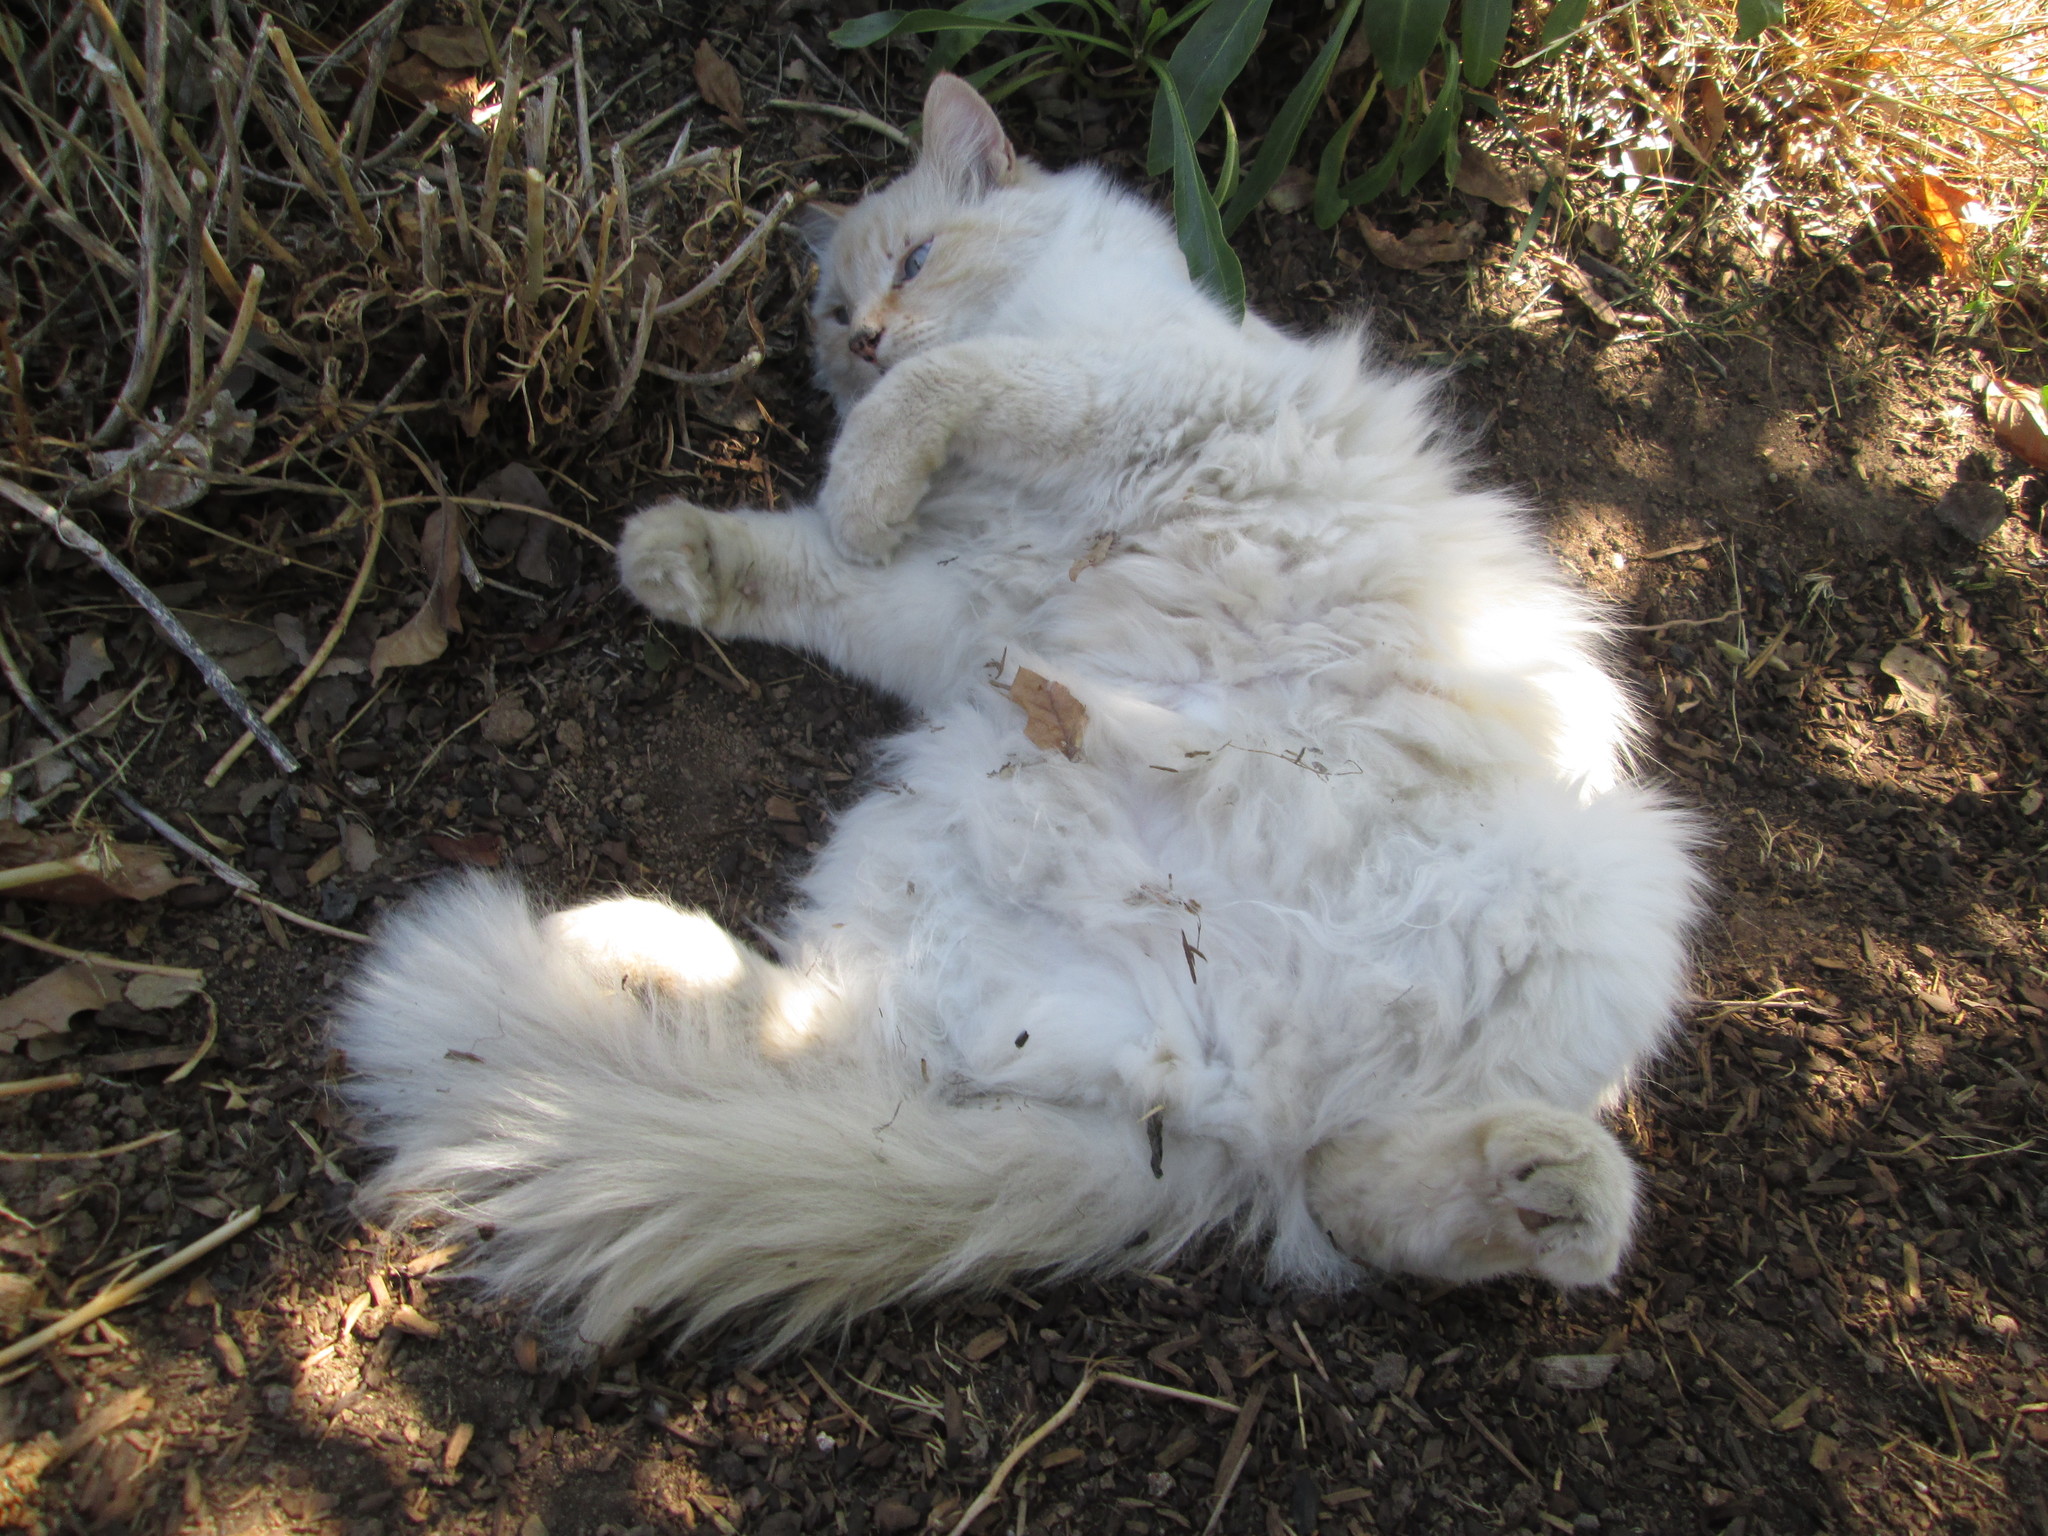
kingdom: Animalia
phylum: Chordata
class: Mammalia
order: Carnivora
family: Felidae
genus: Felis
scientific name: Felis catus
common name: Domestic cat
